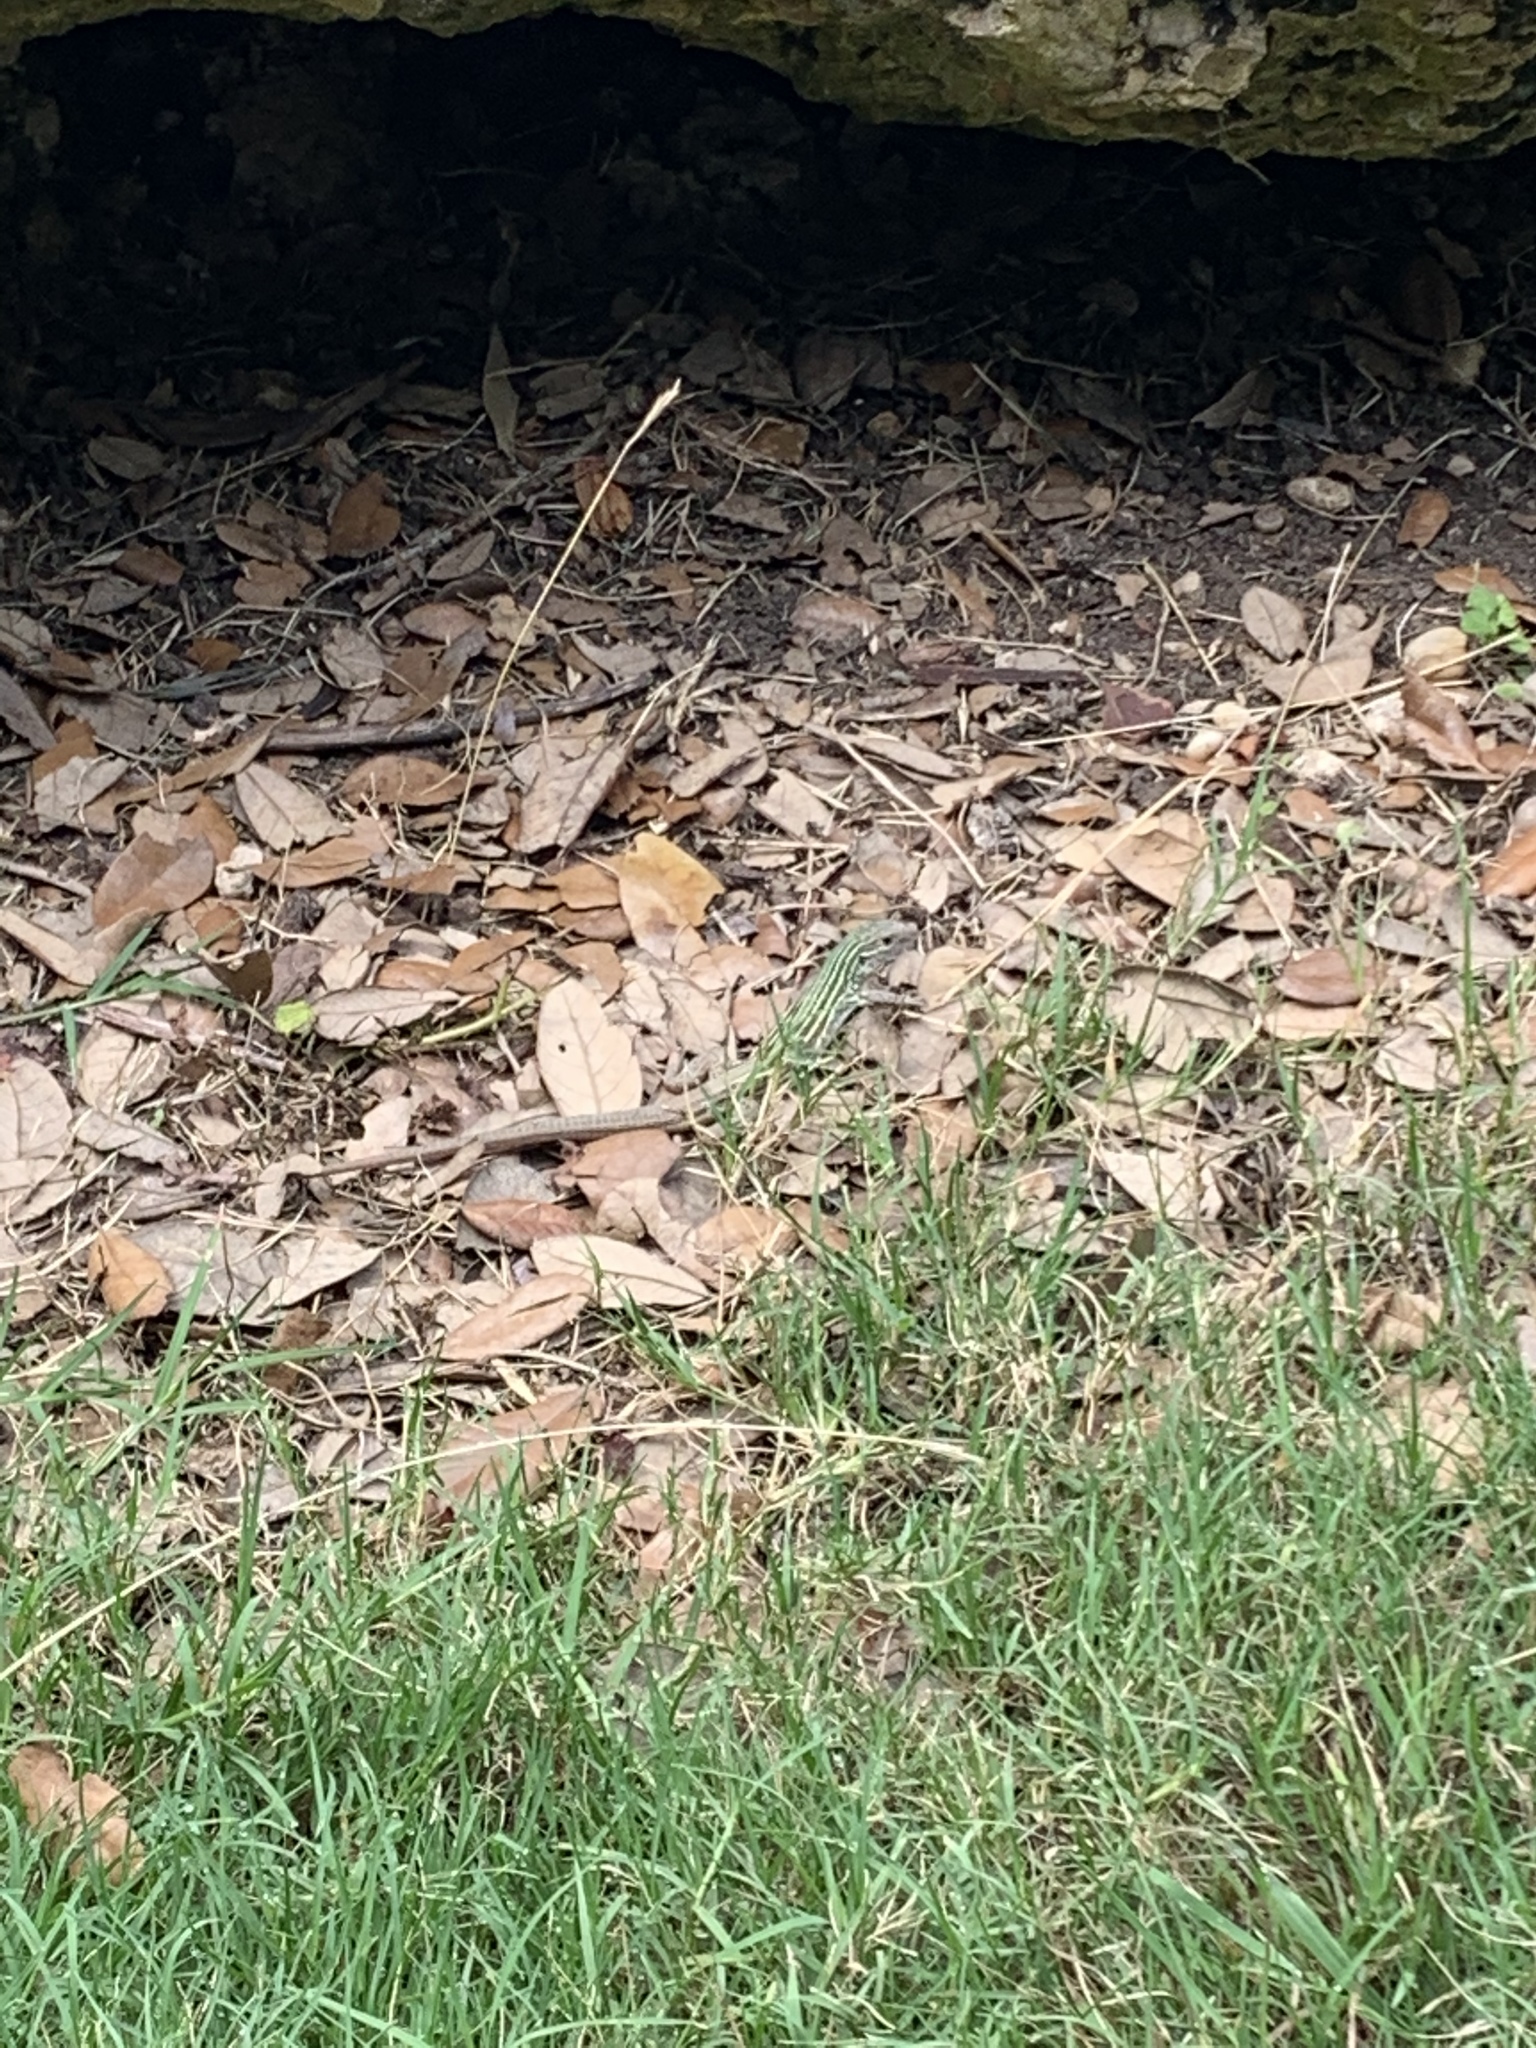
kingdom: Animalia
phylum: Chordata
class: Squamata
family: Teiidae
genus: Aspidoscelis
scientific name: Aspidoscelis gularis
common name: Eastern spotted whiptail
